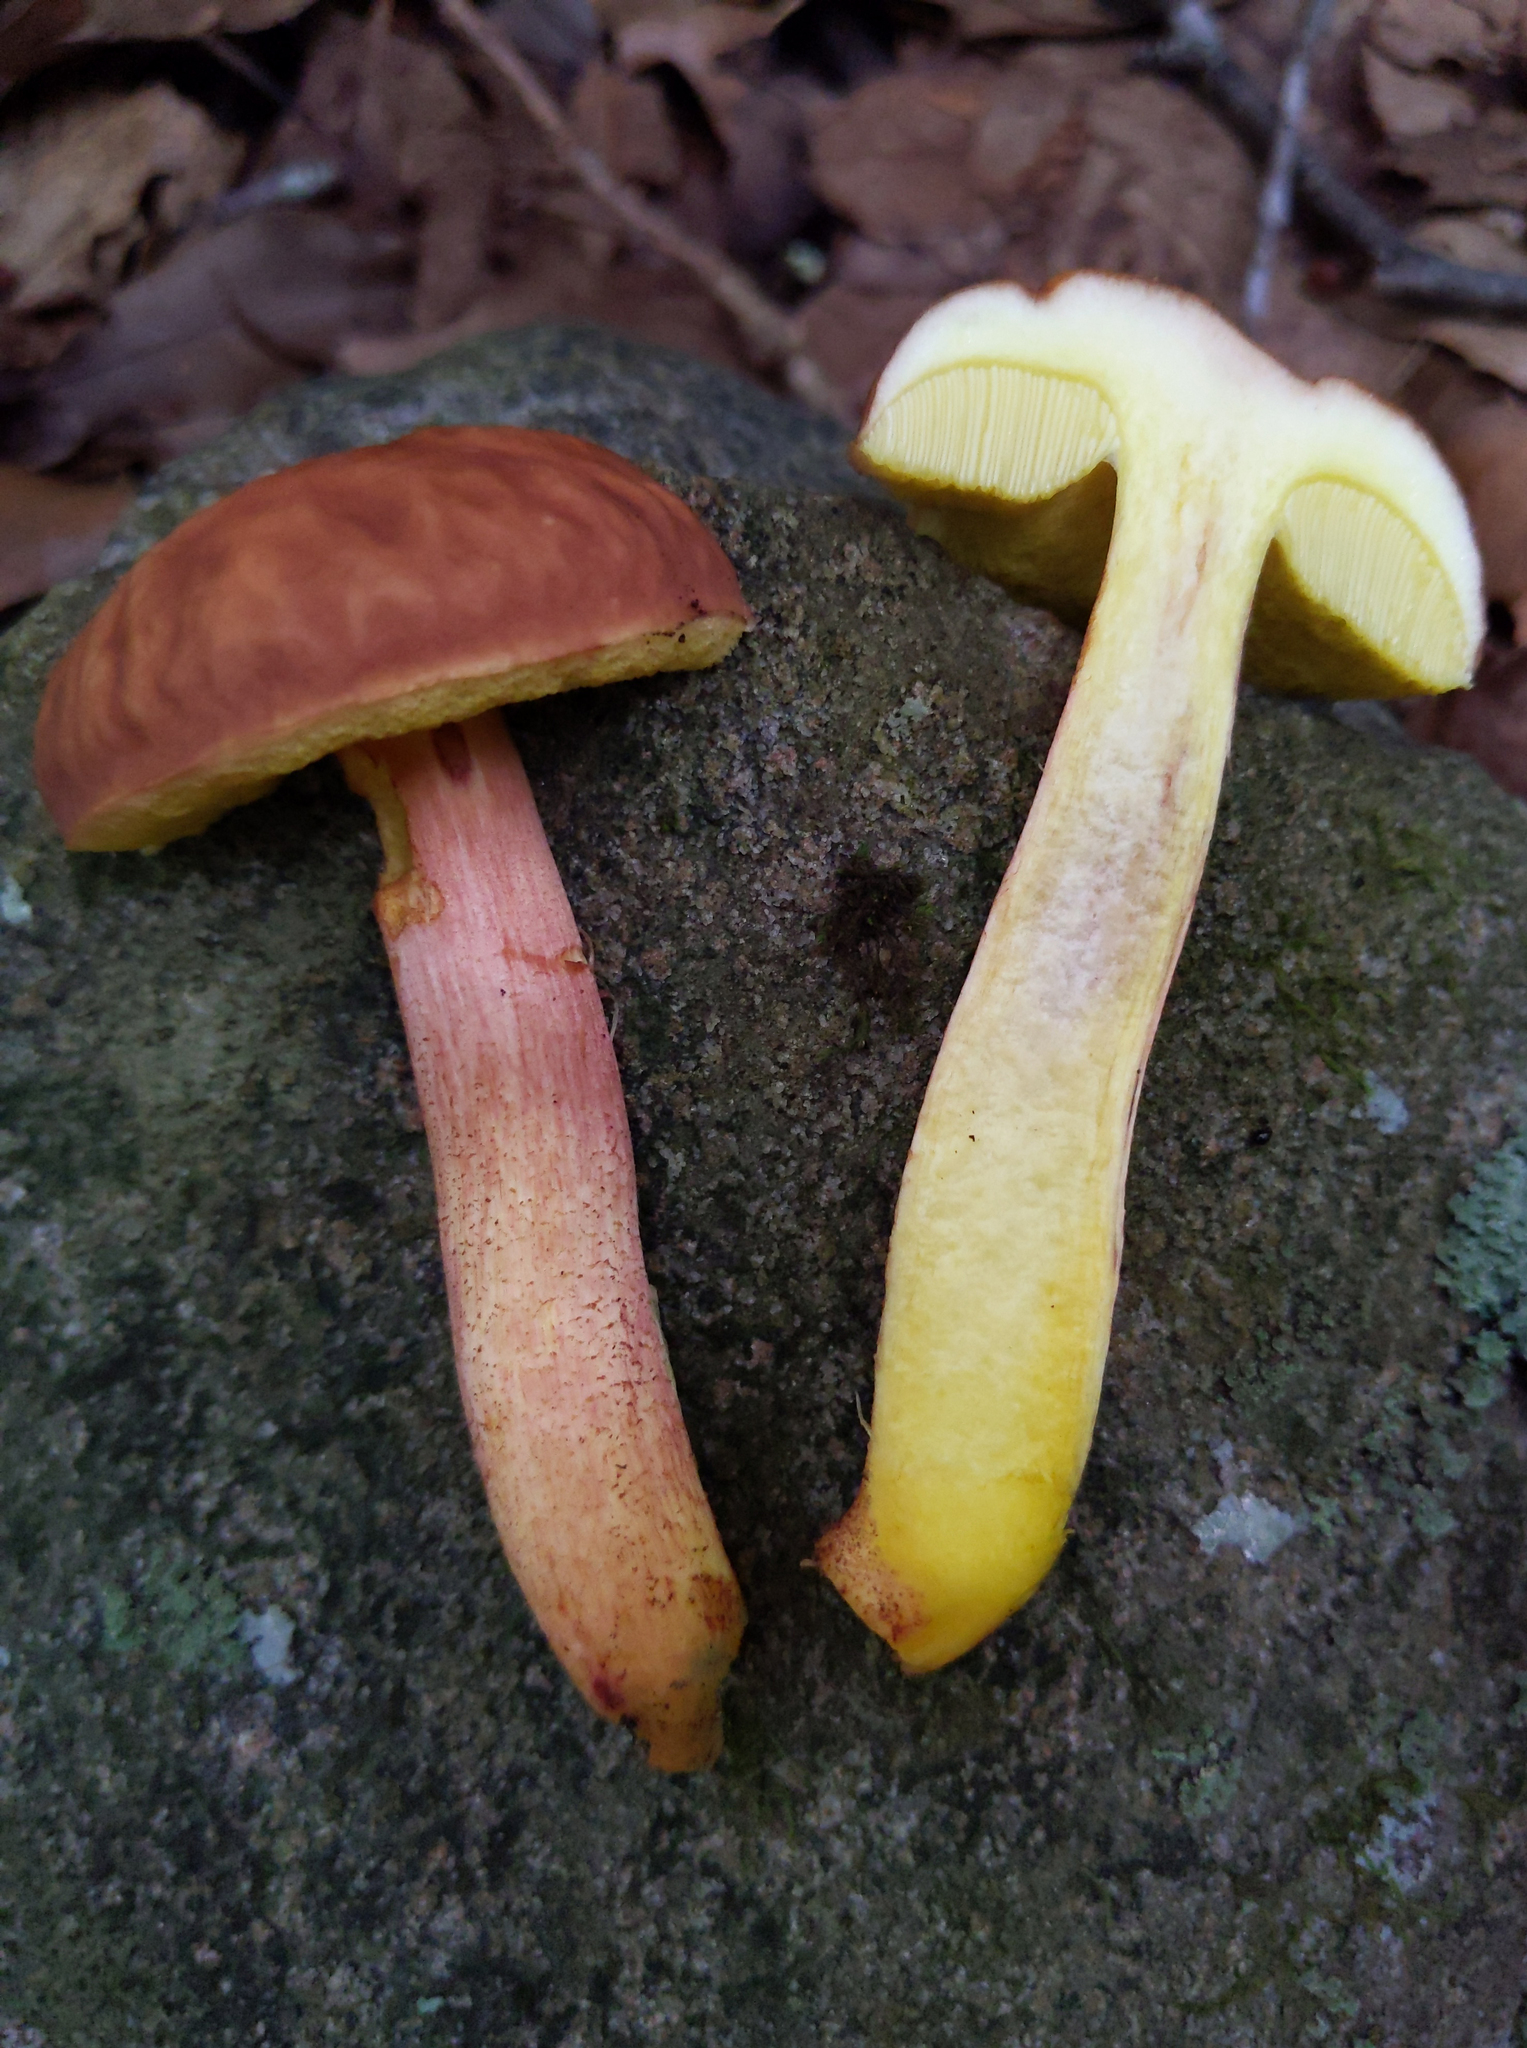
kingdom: Fungi
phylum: Basidiomycota
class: Agaricomycetes
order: Boletales
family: Boletaceae
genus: Hemileccinum
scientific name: Hemileccinum rubropunctum
